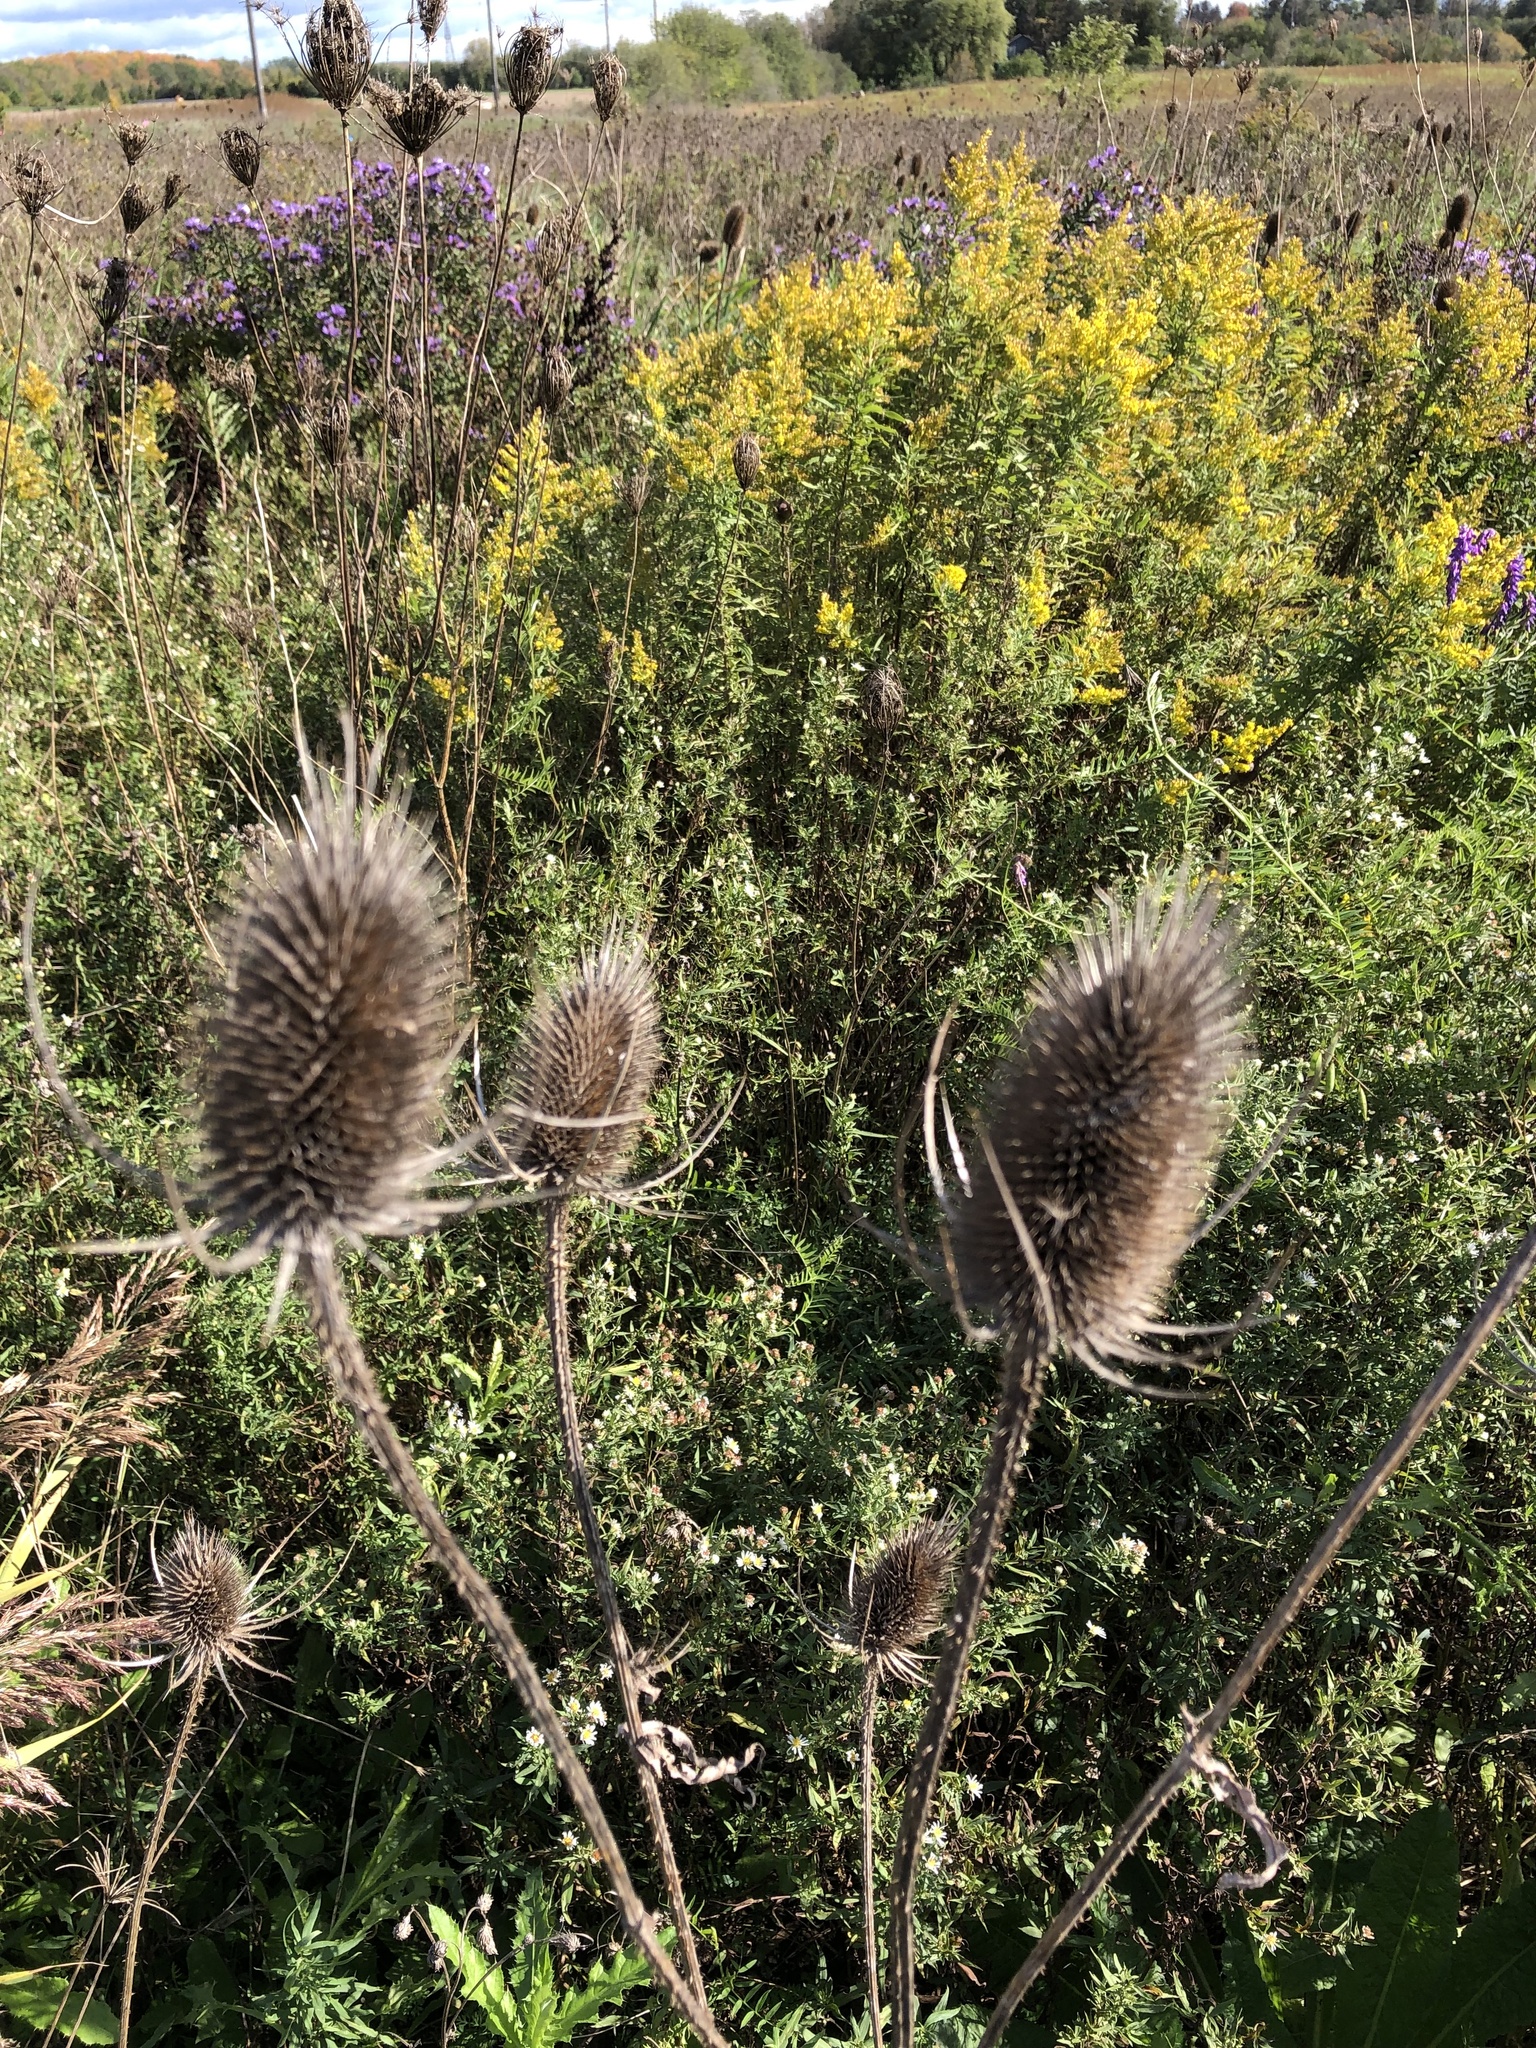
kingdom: Plantae
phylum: Tracheophyta
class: Magnoliopsida
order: Dipsacales
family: Caprifoliaceae
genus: Dipsacus
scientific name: Dipsacus fullonum
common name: Teasel
